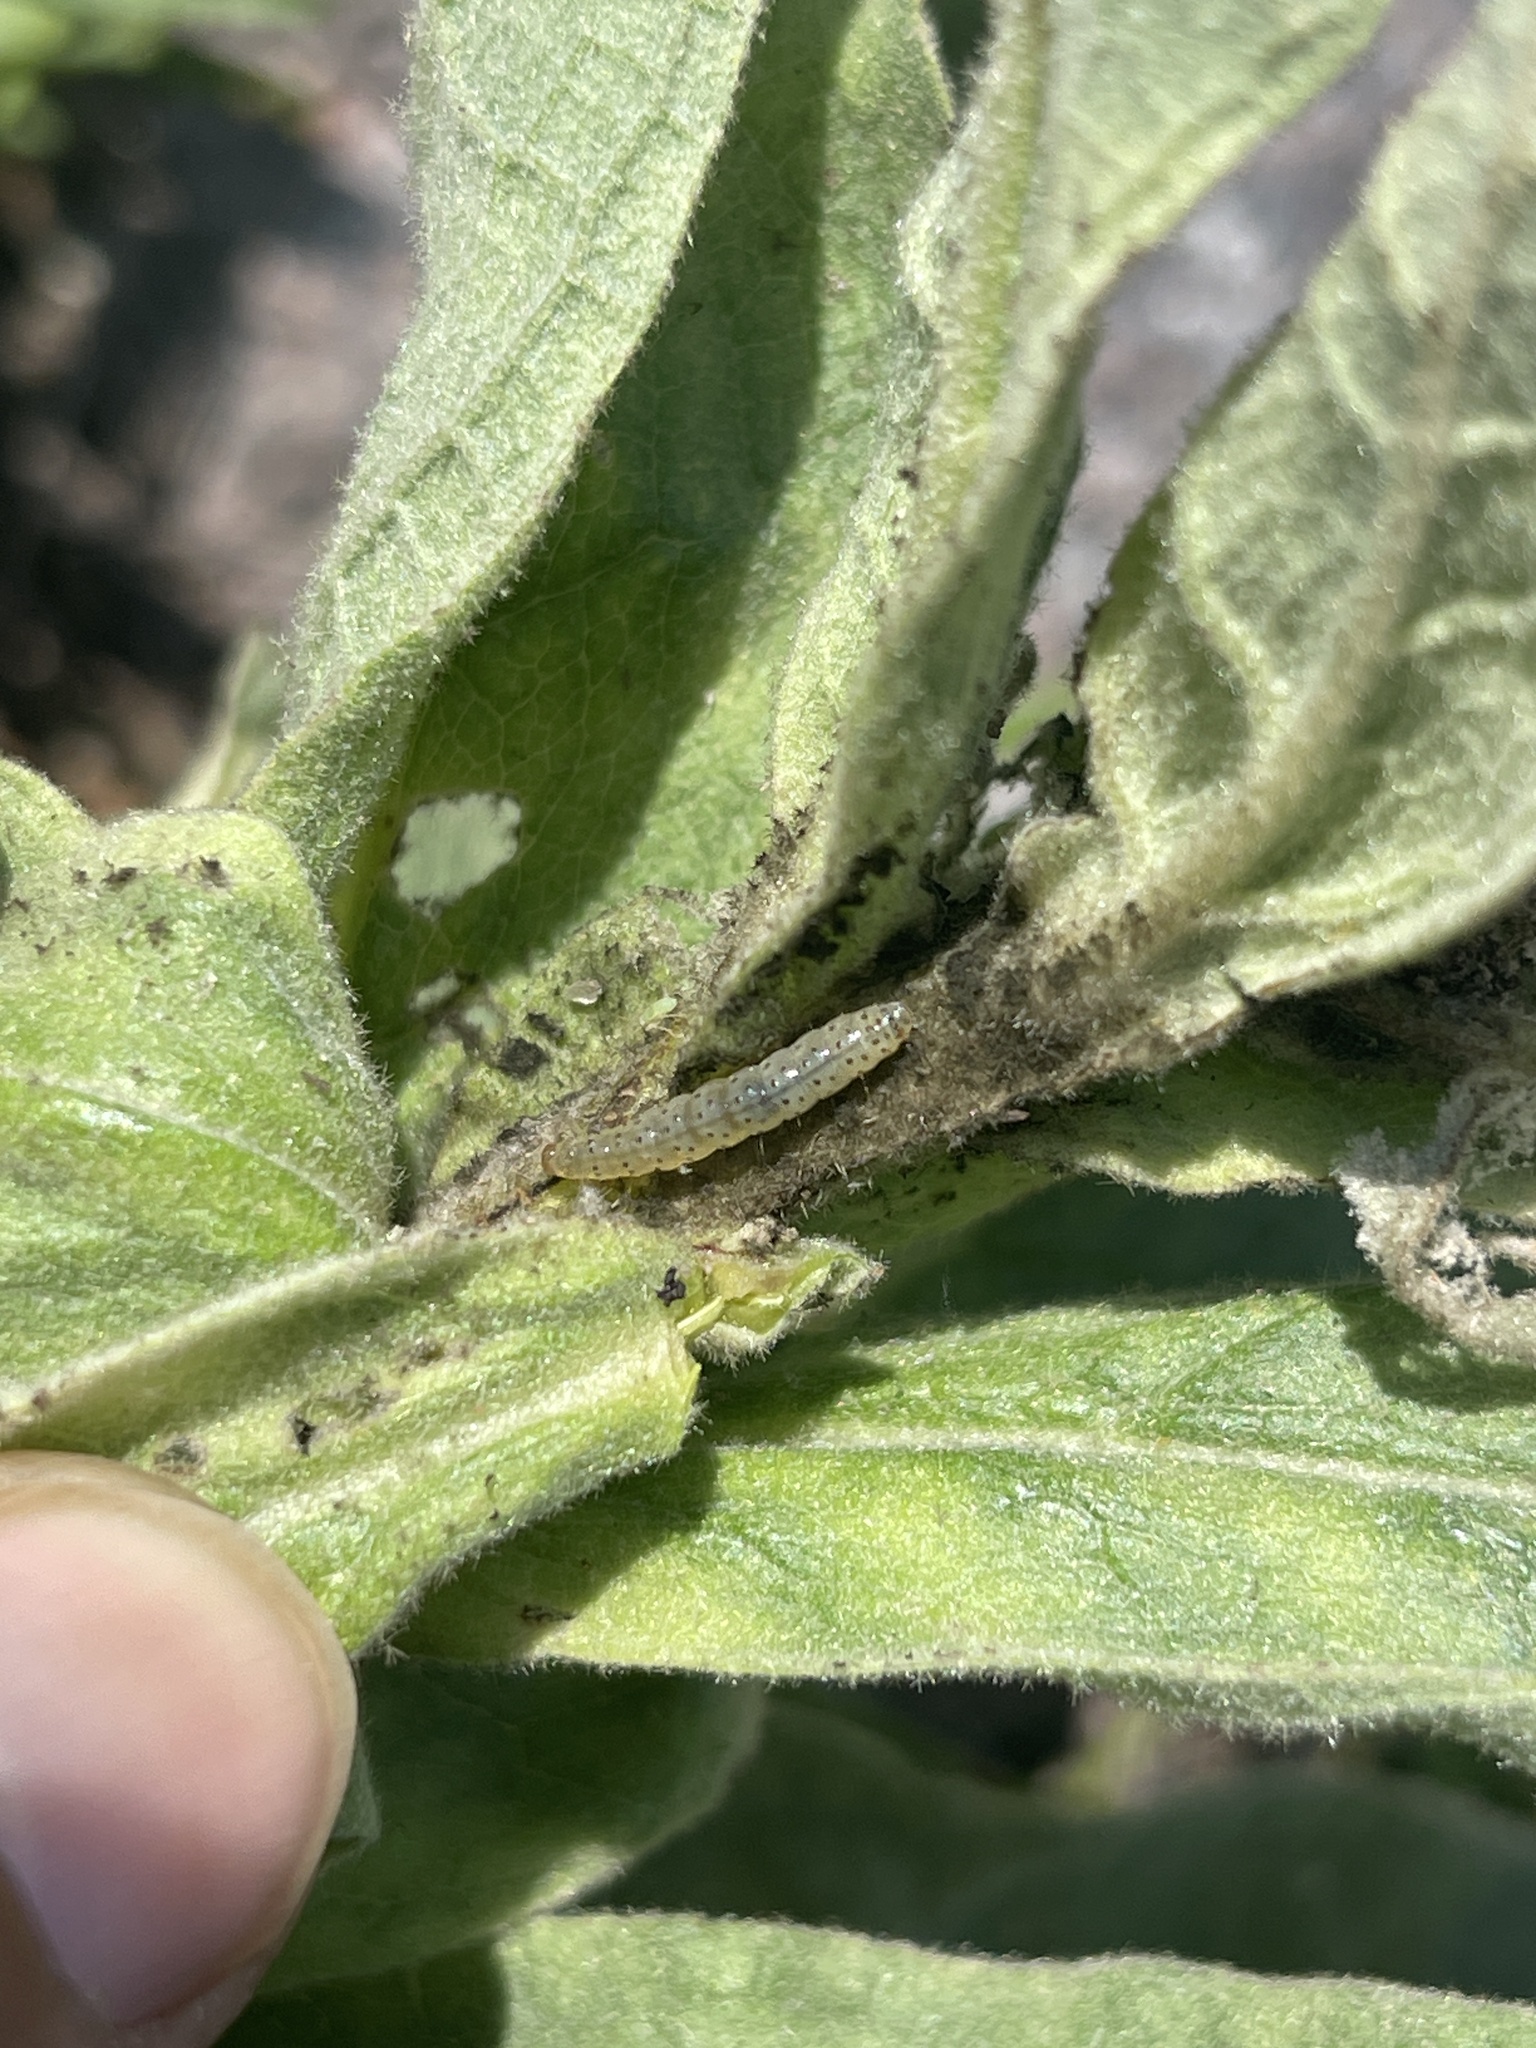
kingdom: Animalia
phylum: Arthropoda
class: Insecta
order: Lepidoptera
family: Crambidae
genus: Paracorsia
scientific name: Paracorsia repandalis
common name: Mullein moth
